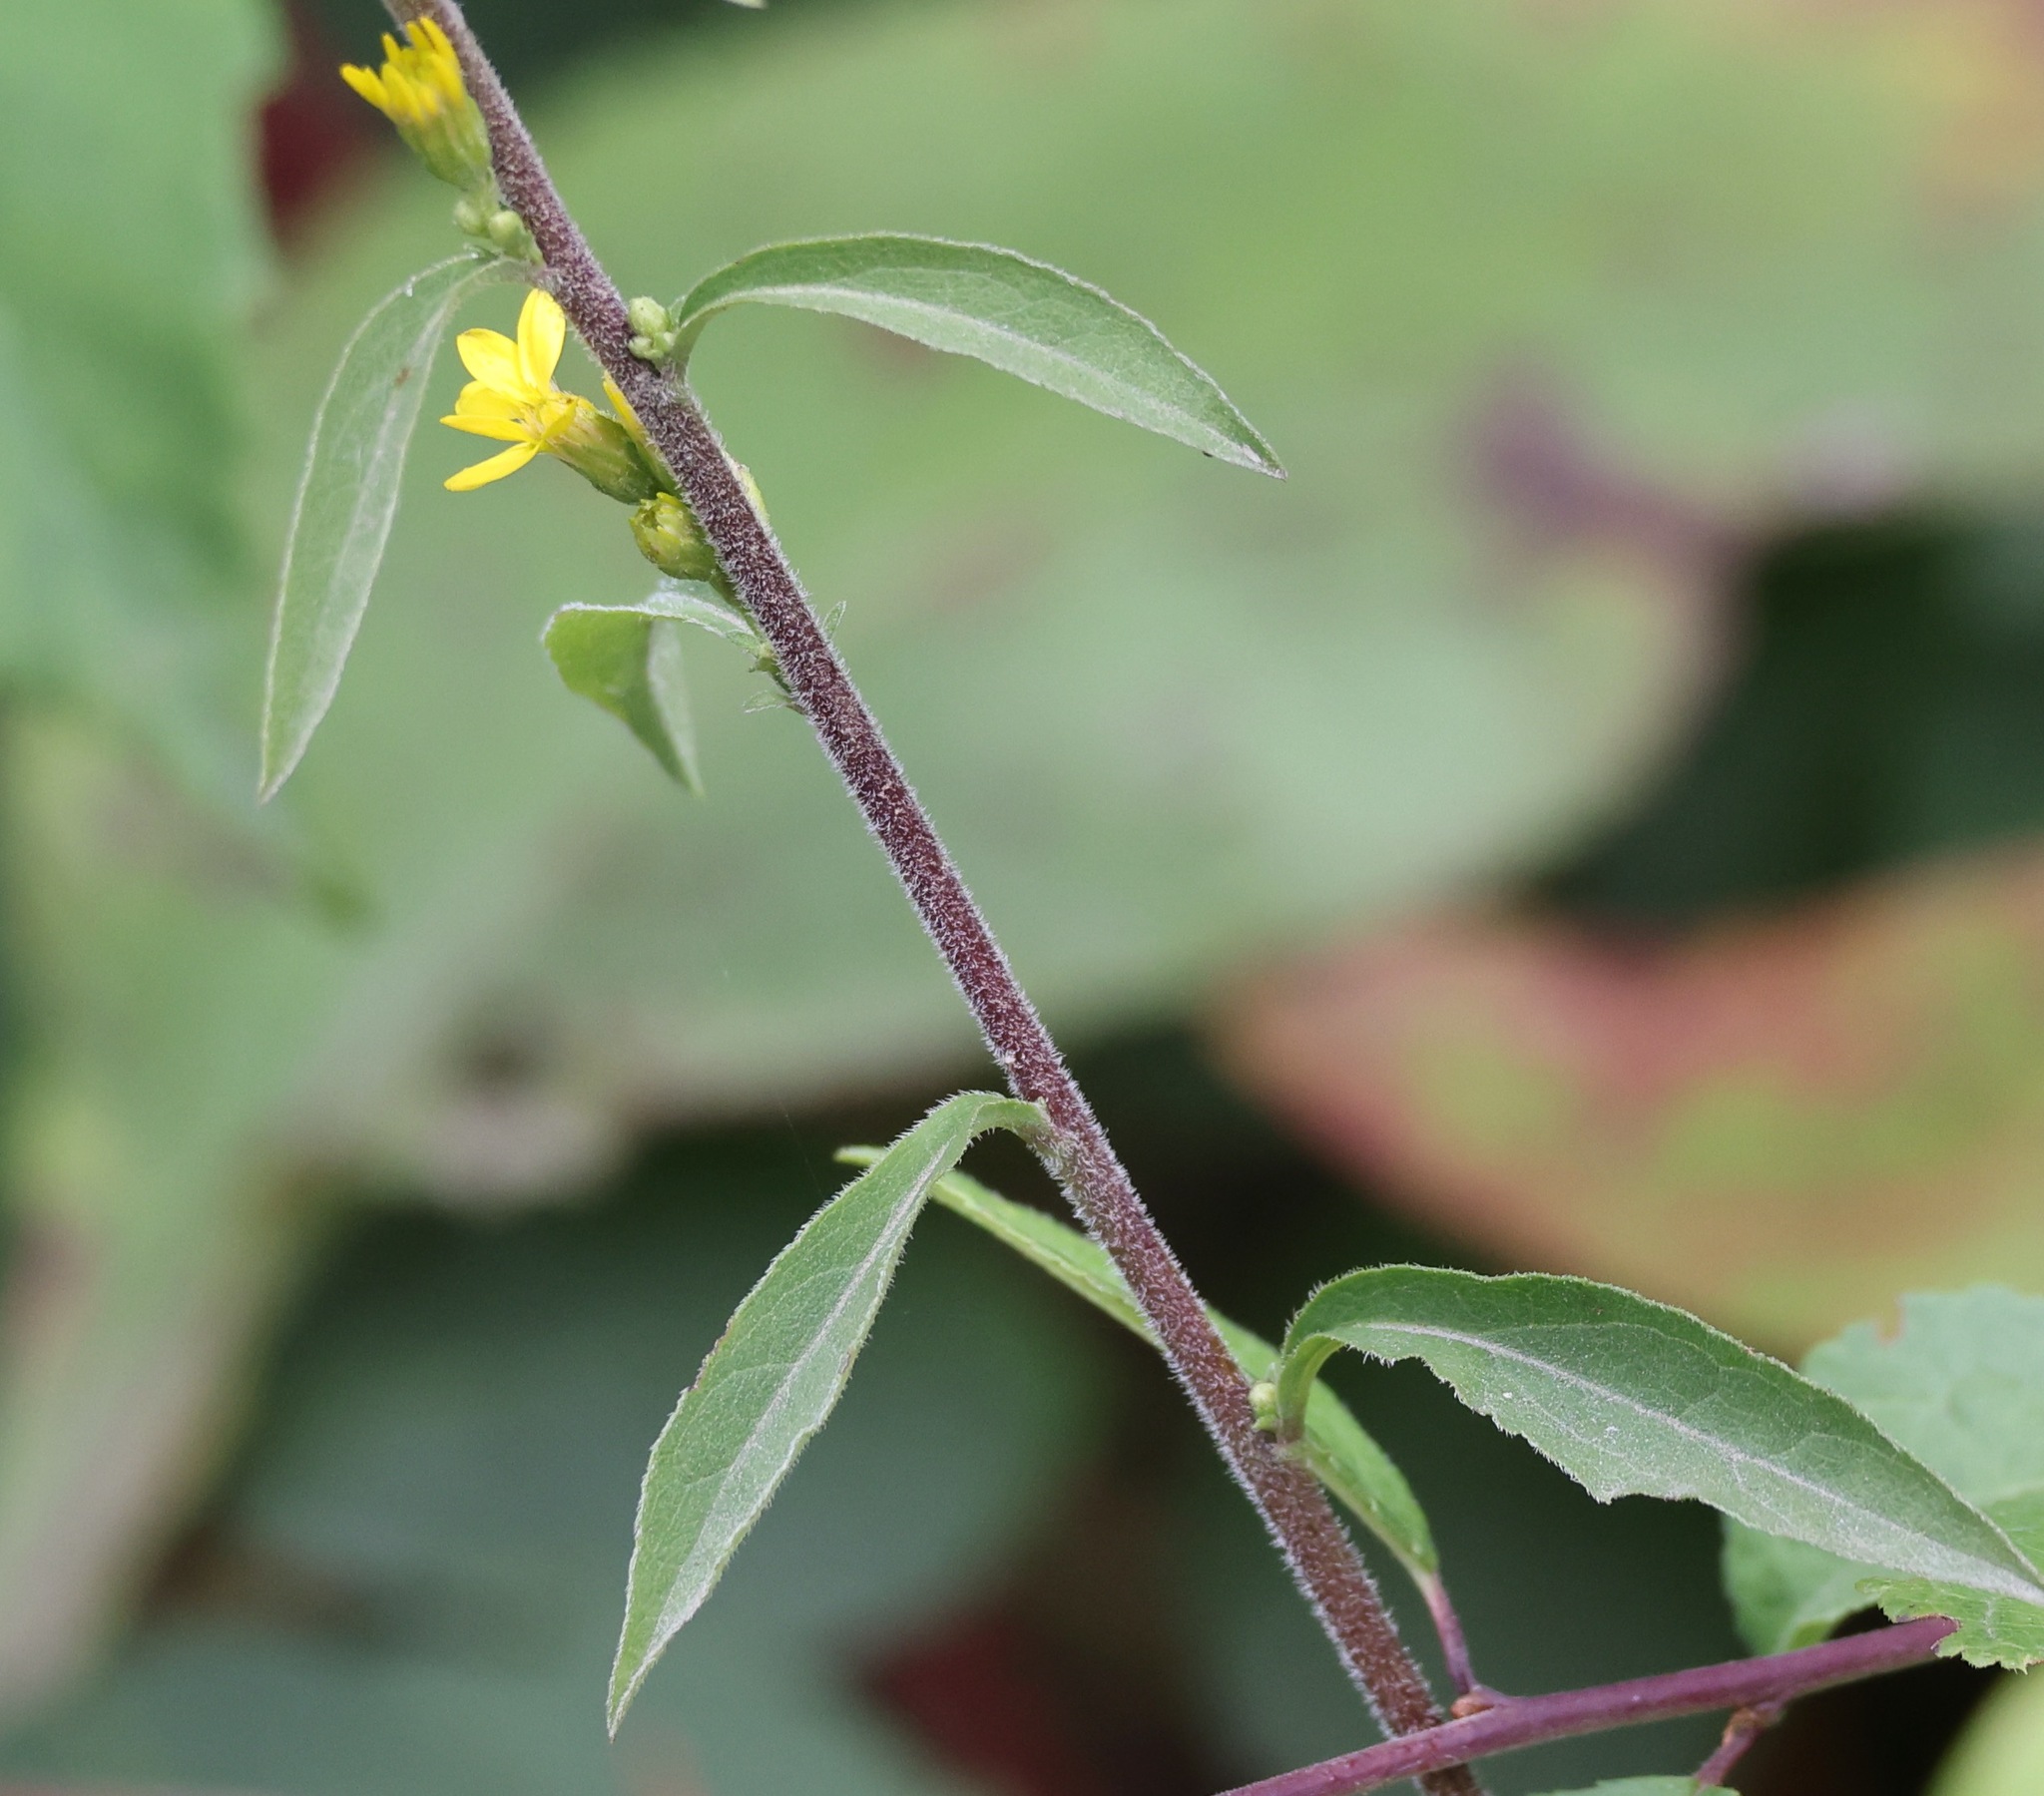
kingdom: Plantae
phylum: Tracheophyta
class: Magnoliopsida
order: Asterales
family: Asteraceae
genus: Solidago
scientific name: Solidago virgaurea
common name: Goldenrod
